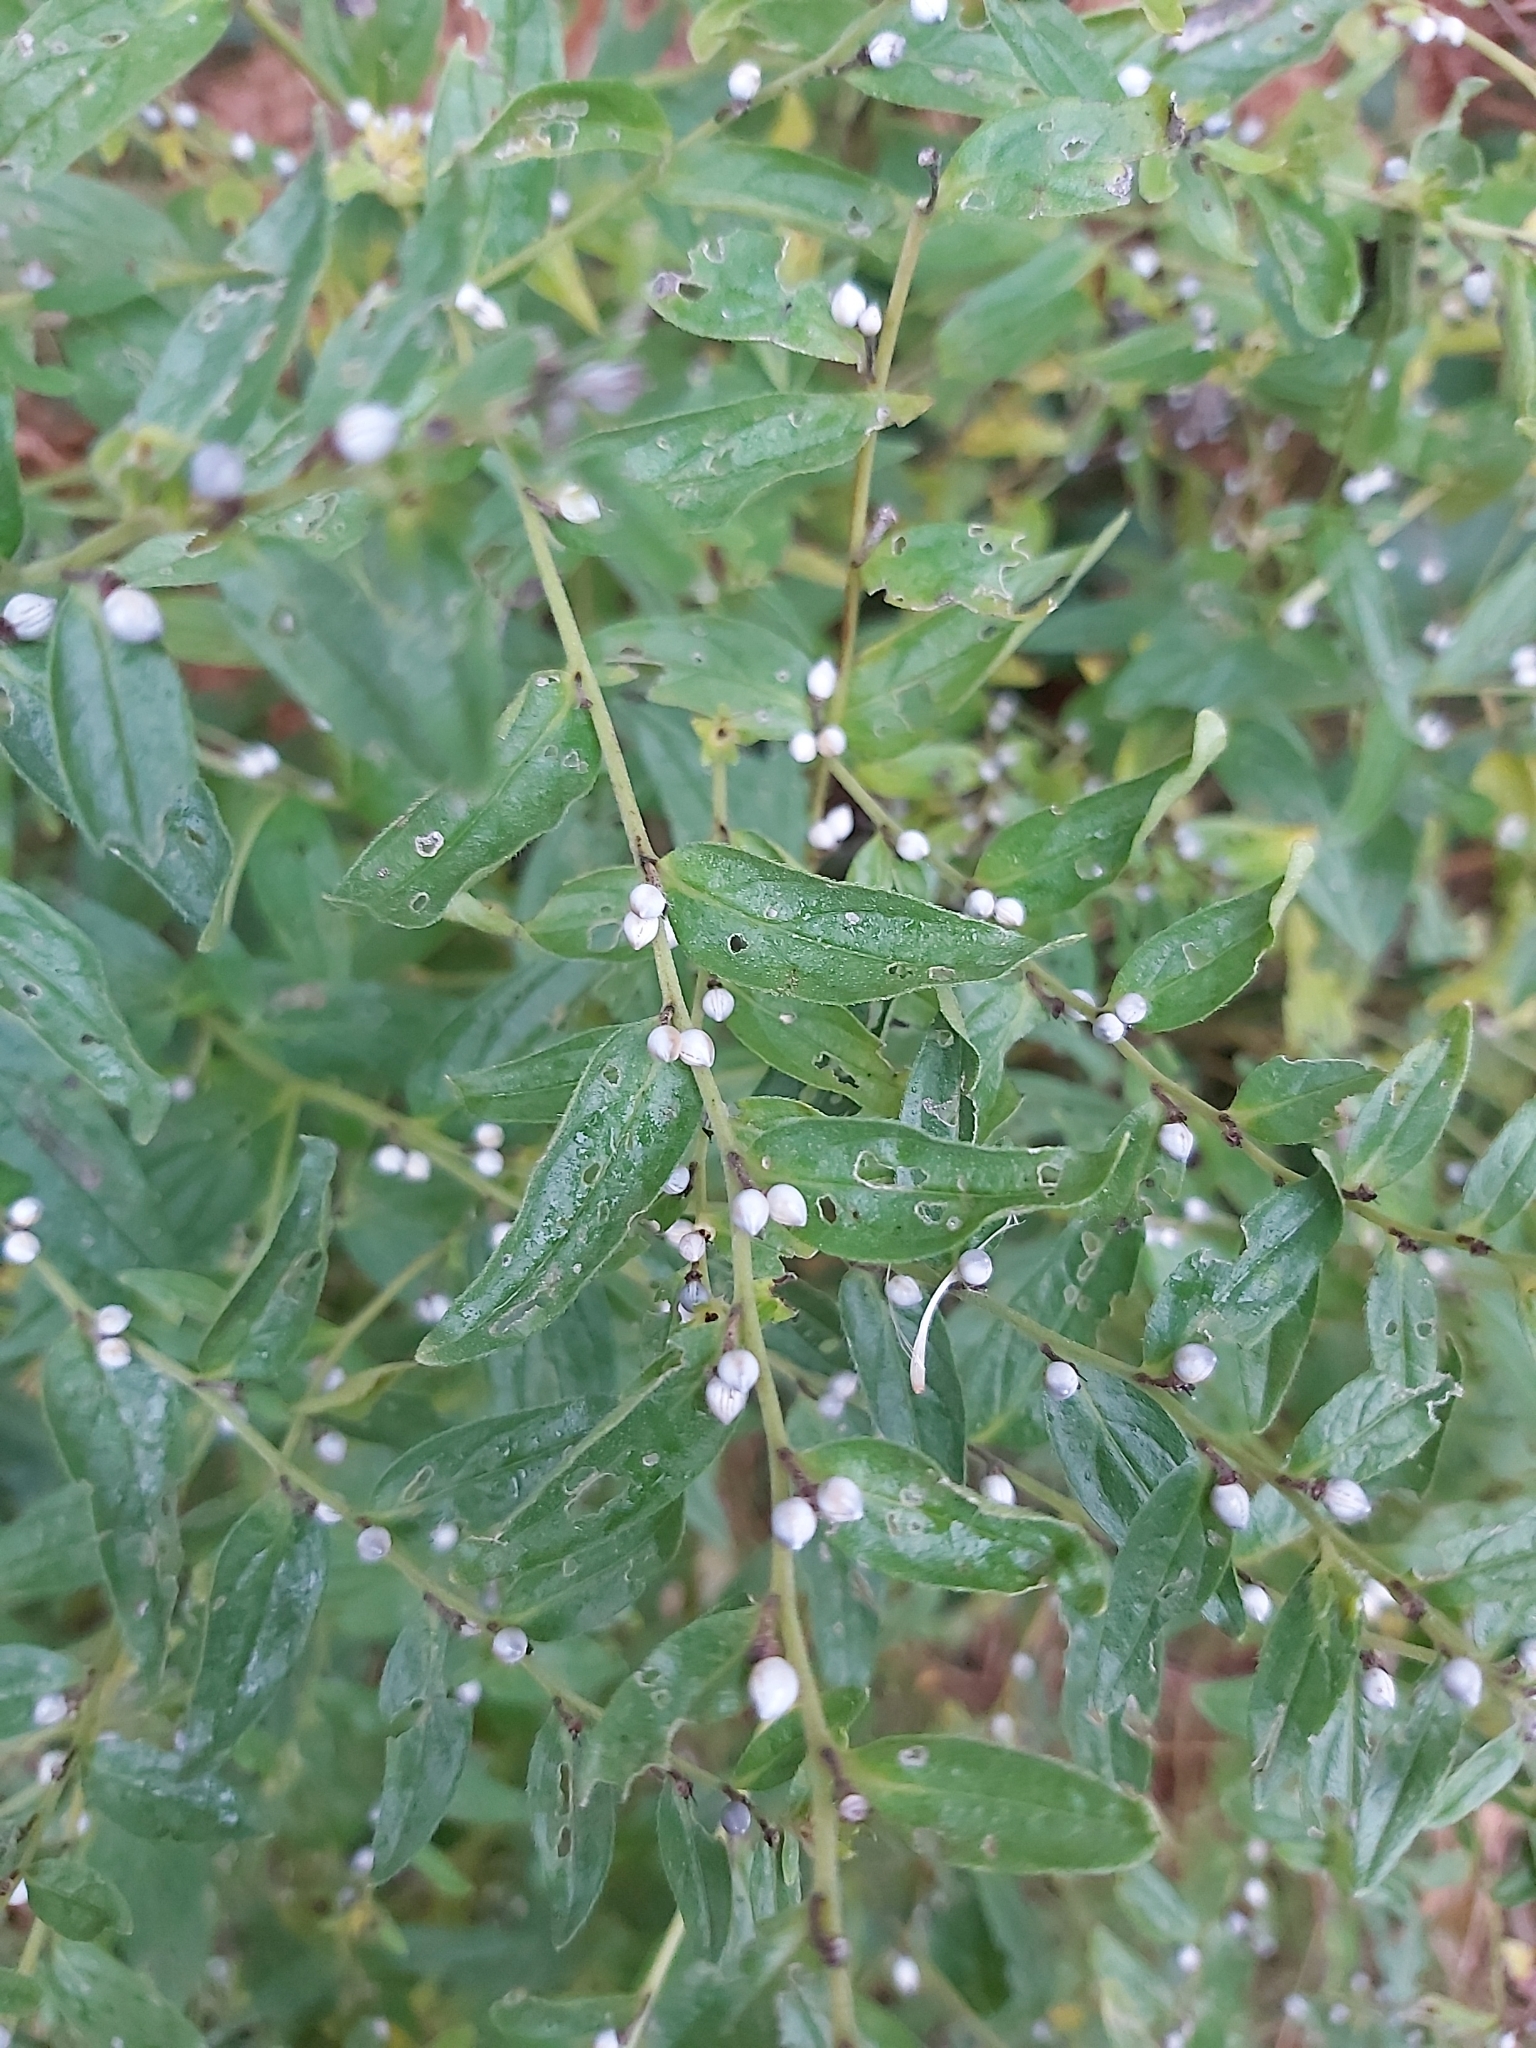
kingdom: Plantae
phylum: Tracheophyta
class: Magnoliopsida
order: Boraginales
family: Boraginaceae
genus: Lithospermum
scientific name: Lithospermum officinale
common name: Common gromwell
